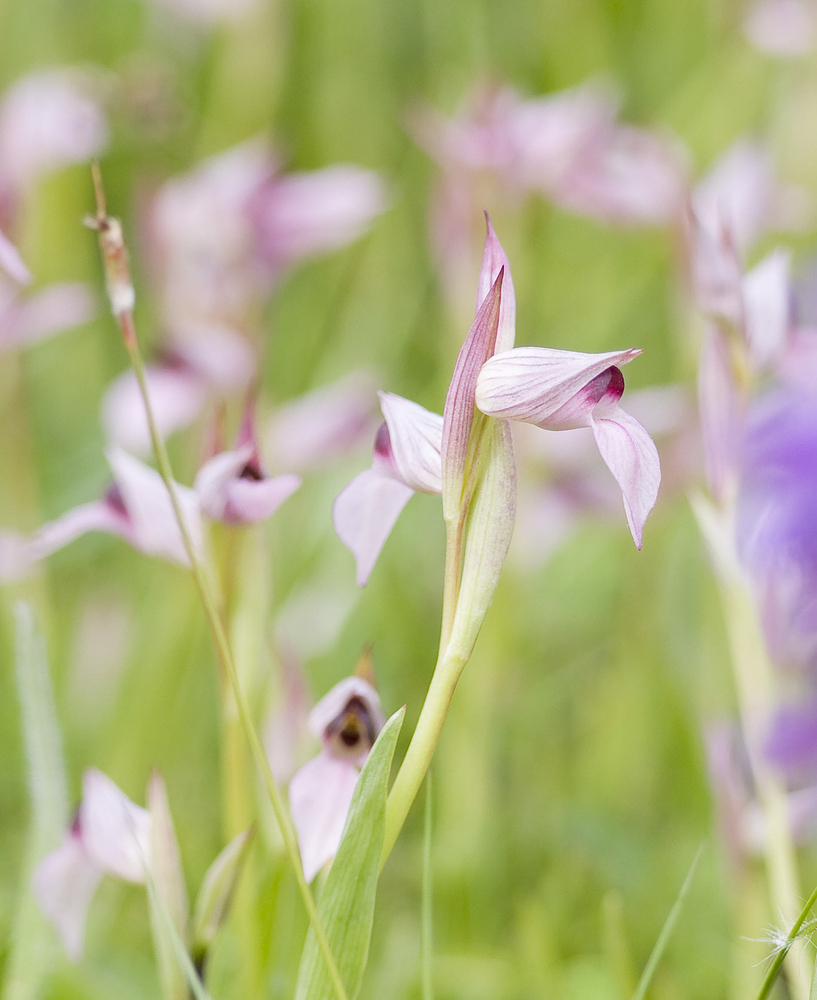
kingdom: Plantae
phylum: Tracheophyta
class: Liliopsida
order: Asparagales
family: Orchidaceae
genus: Serapias
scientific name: Serapias lingua
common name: Tongue-orchid
